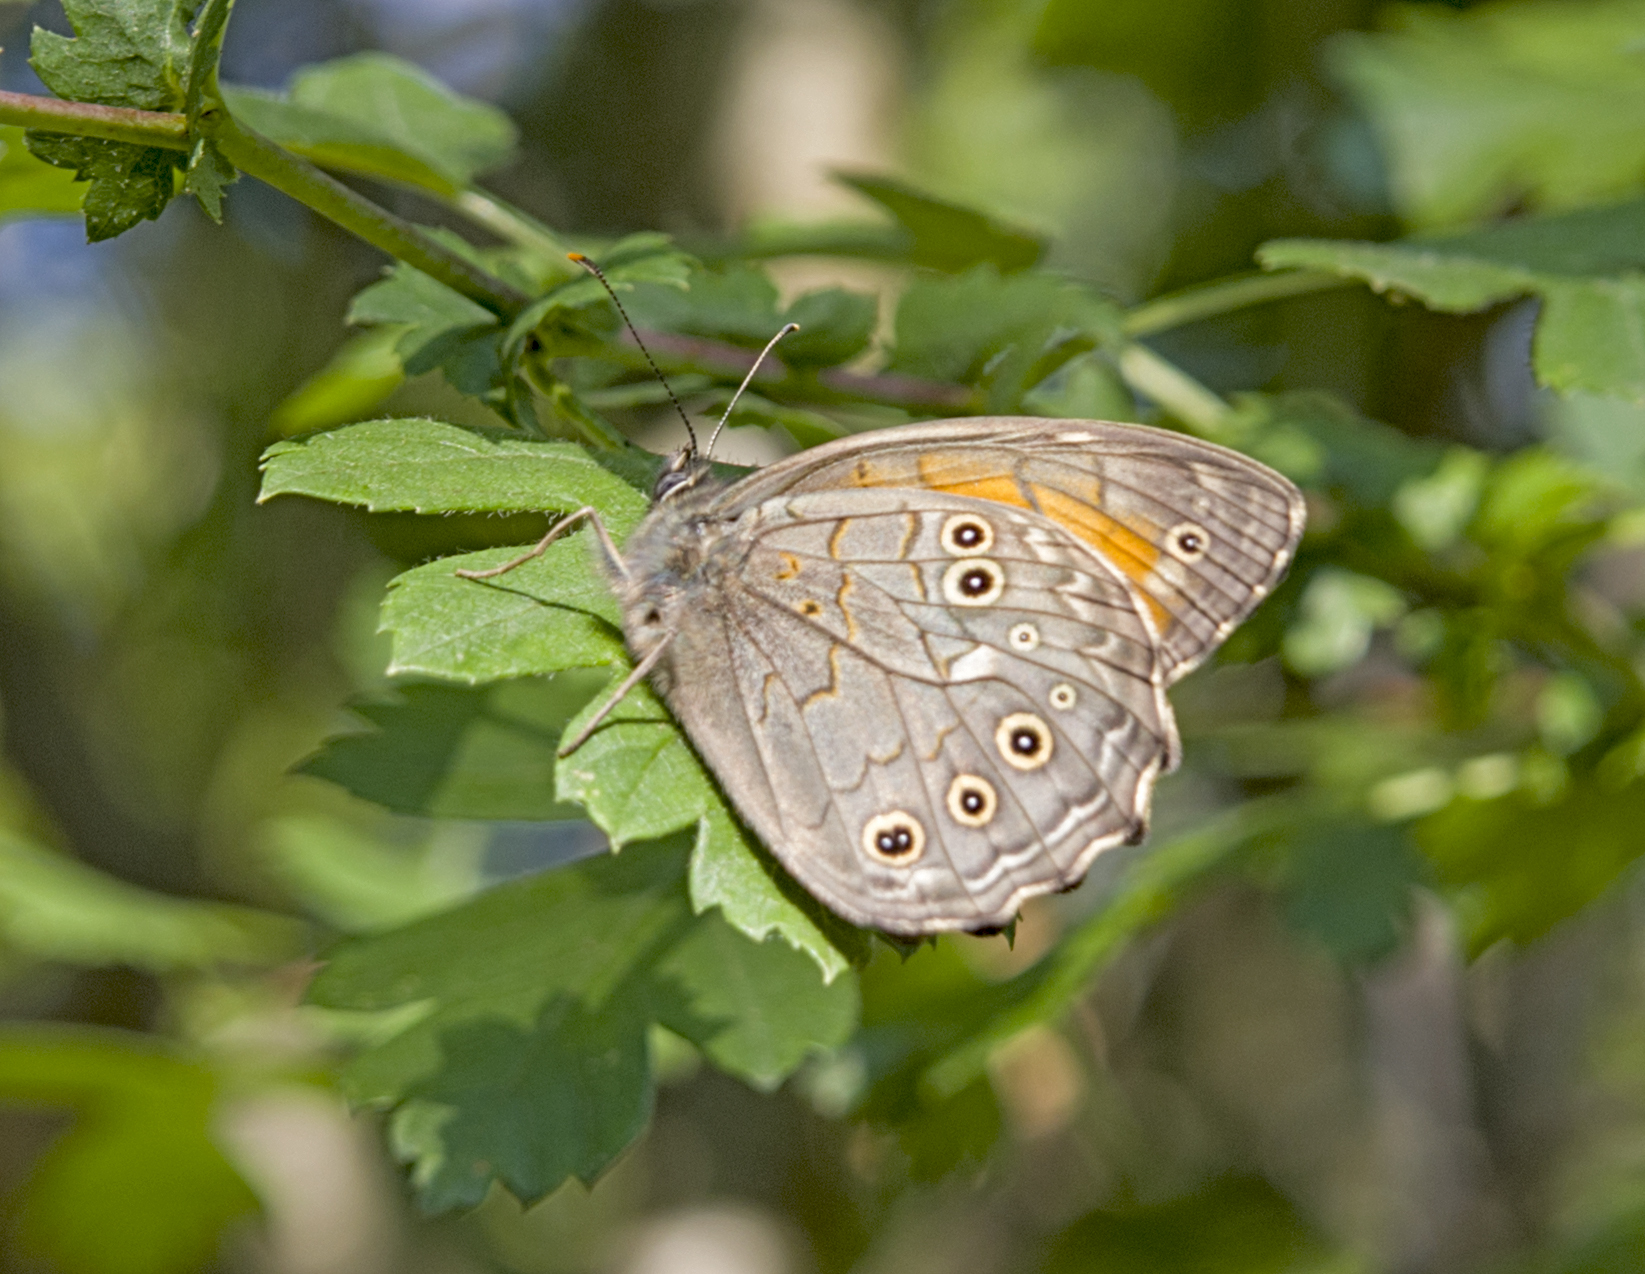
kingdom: Animalia
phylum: Arthropoda
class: Insecta
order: Lepidoptera
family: Nymphalidae
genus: Kirinia
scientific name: Kirinia roxelana
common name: Lattice brown
